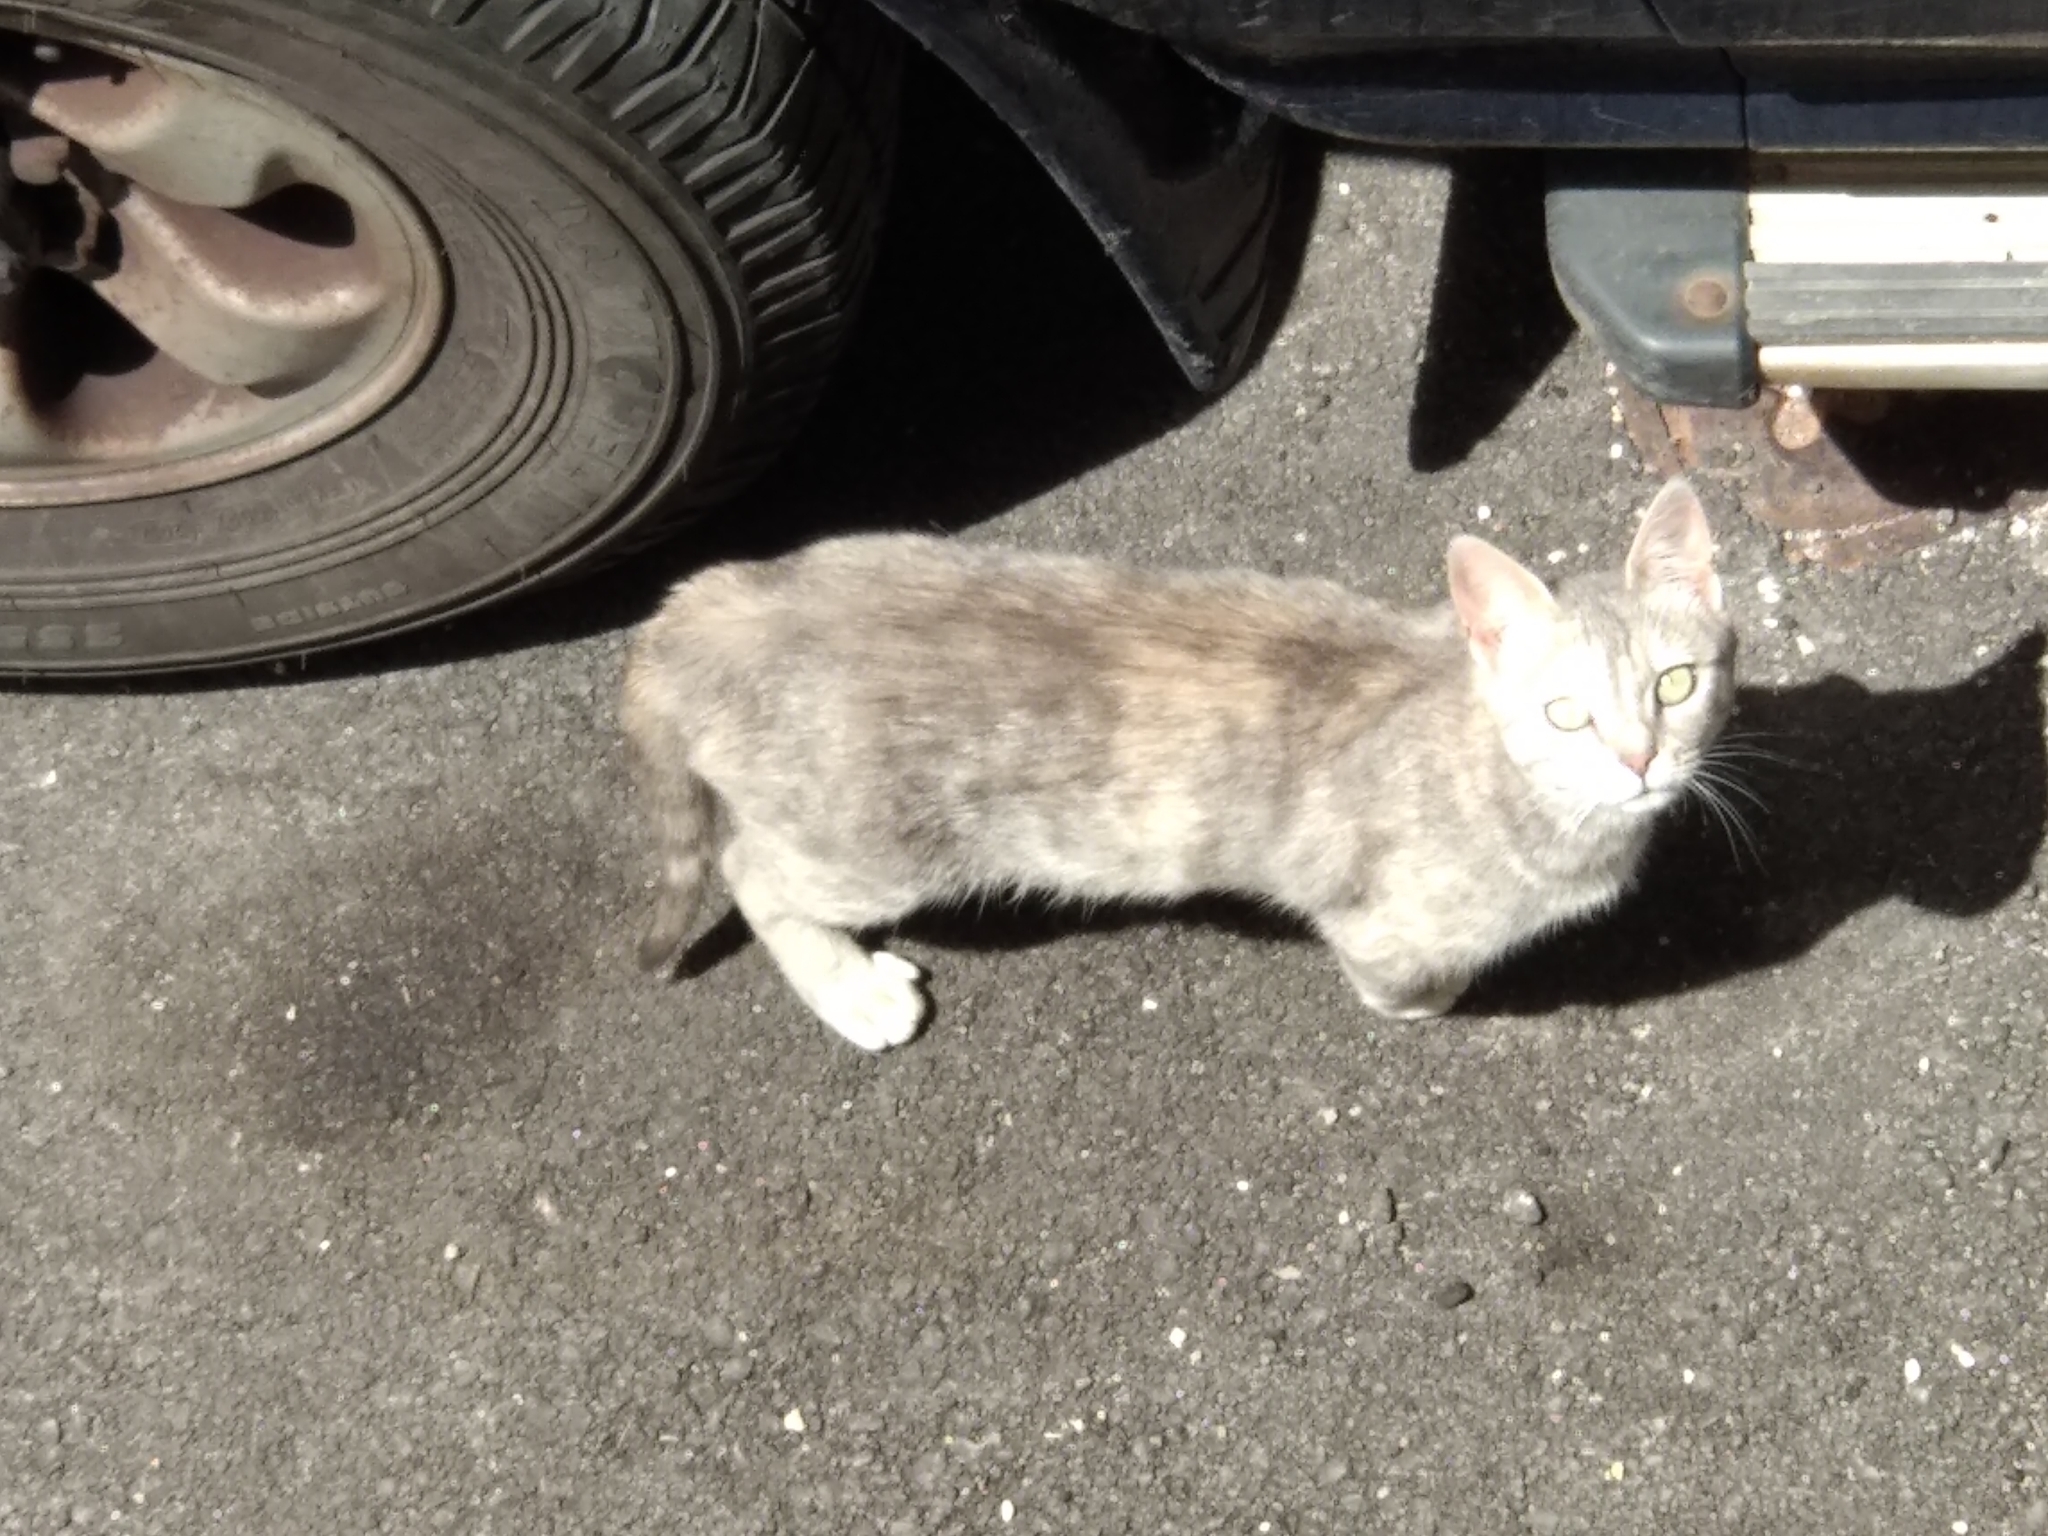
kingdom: Animalia
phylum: Chordata
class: Mammalia
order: Carnivora
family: Felidae
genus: Felis
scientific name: Felis catus
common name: Domestic cat
